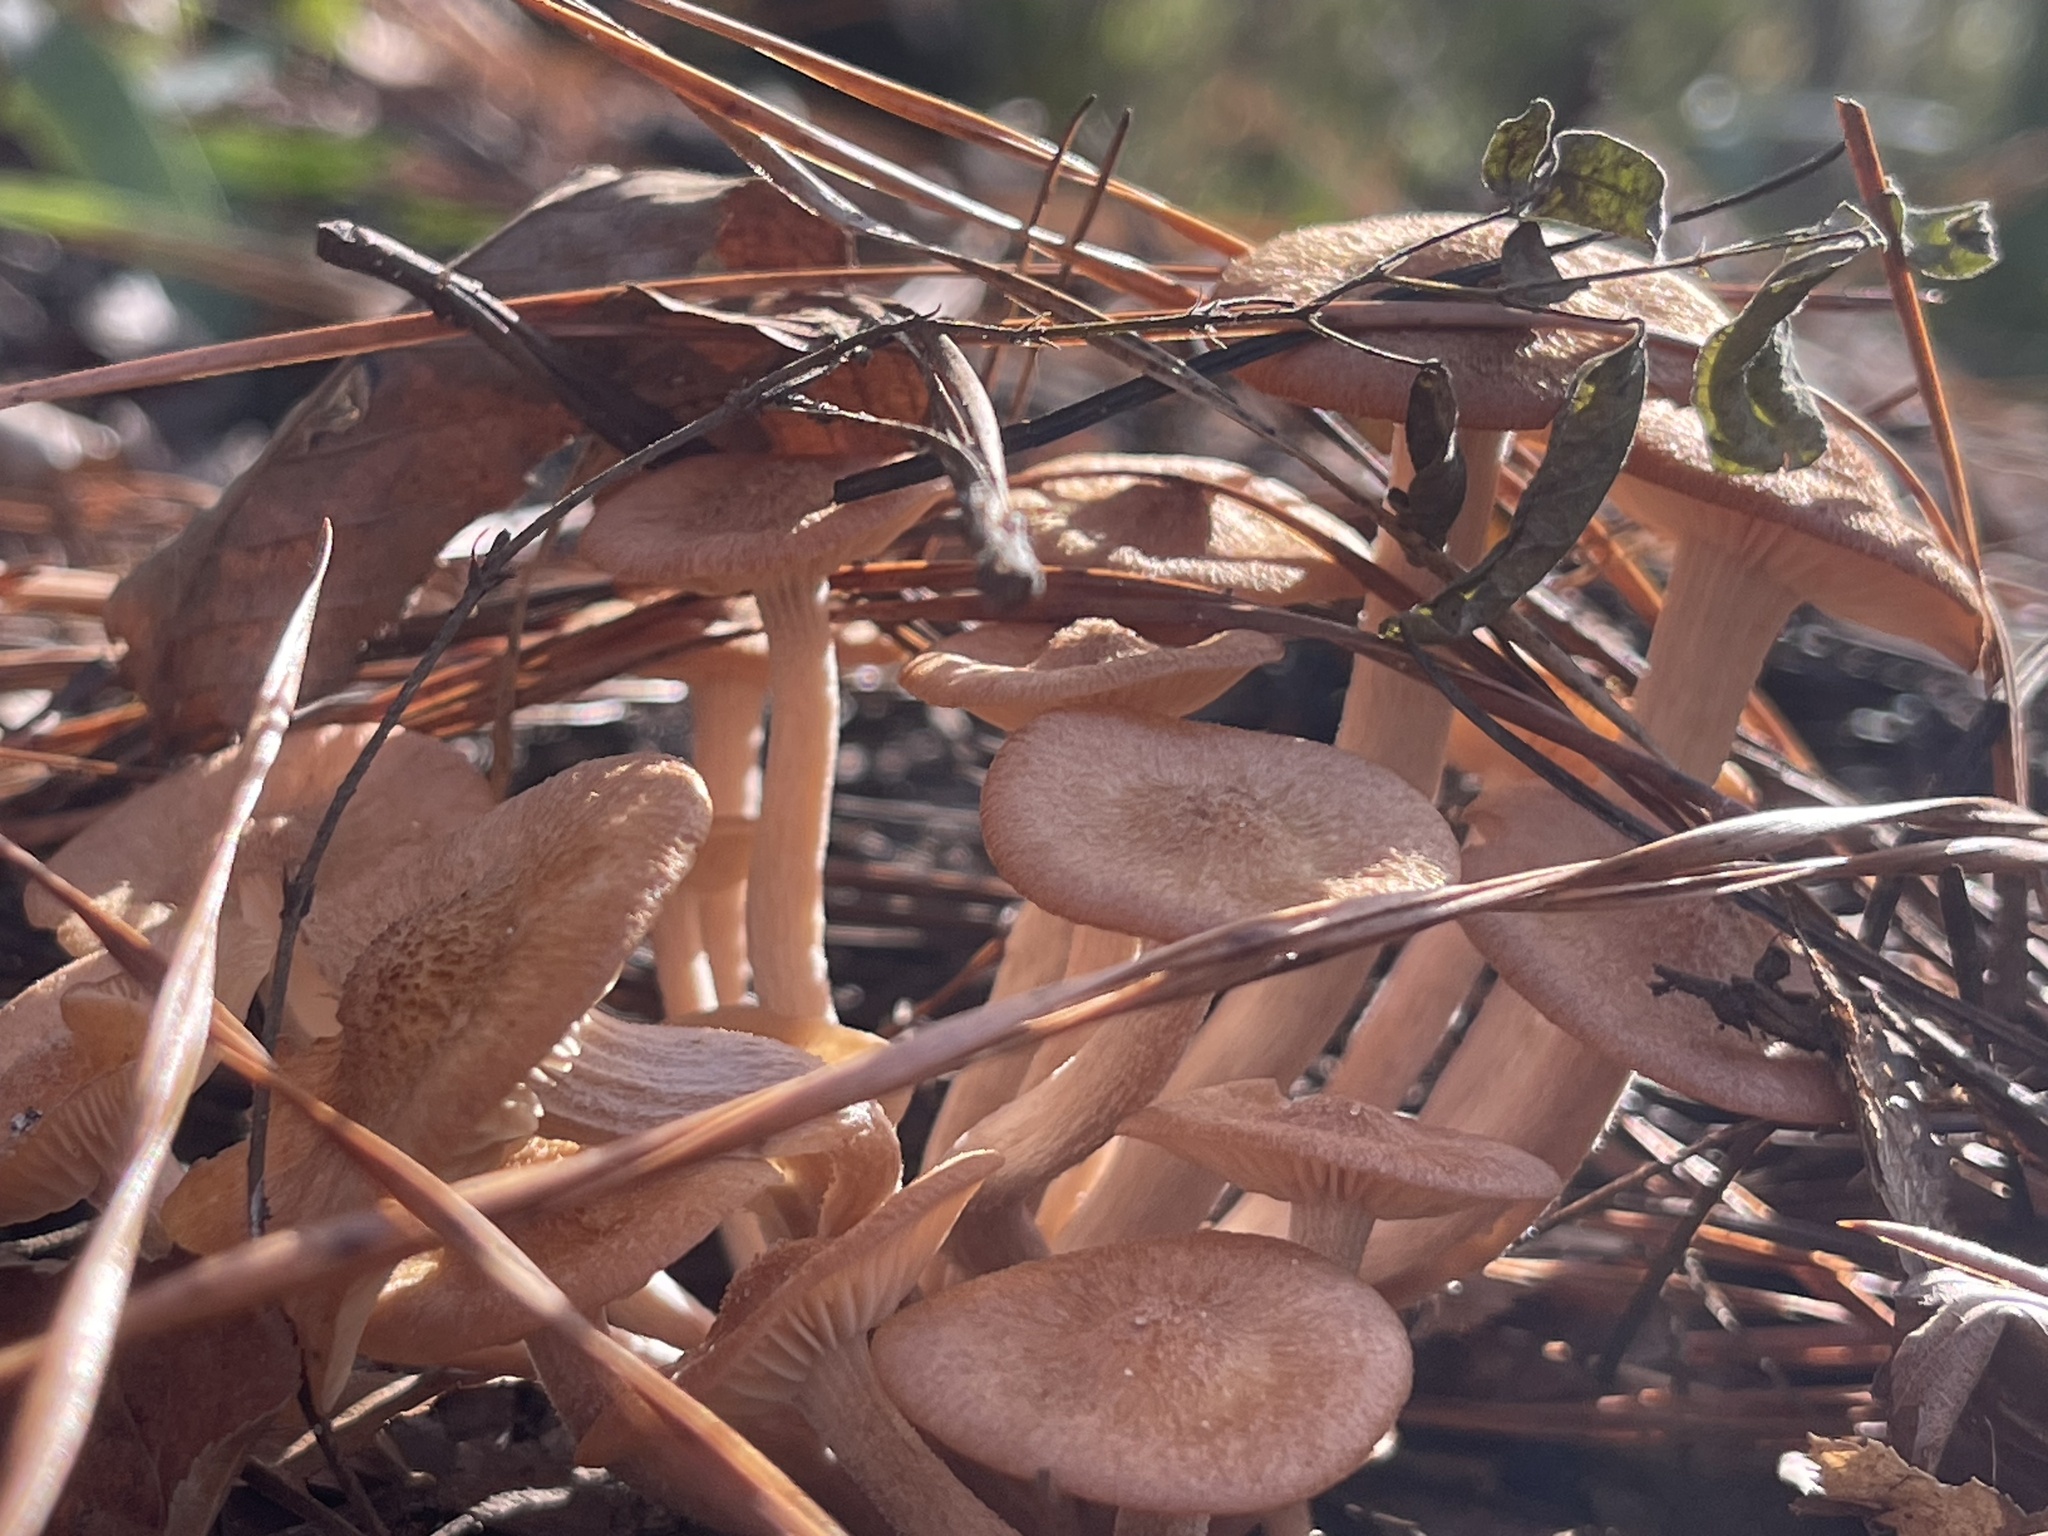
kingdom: Fungi
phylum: Basidiomycota
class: Agaricomycetes
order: Agaricales
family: Physalacriaceae
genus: Desarmillaria
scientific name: Desarmillaria caespitosa
